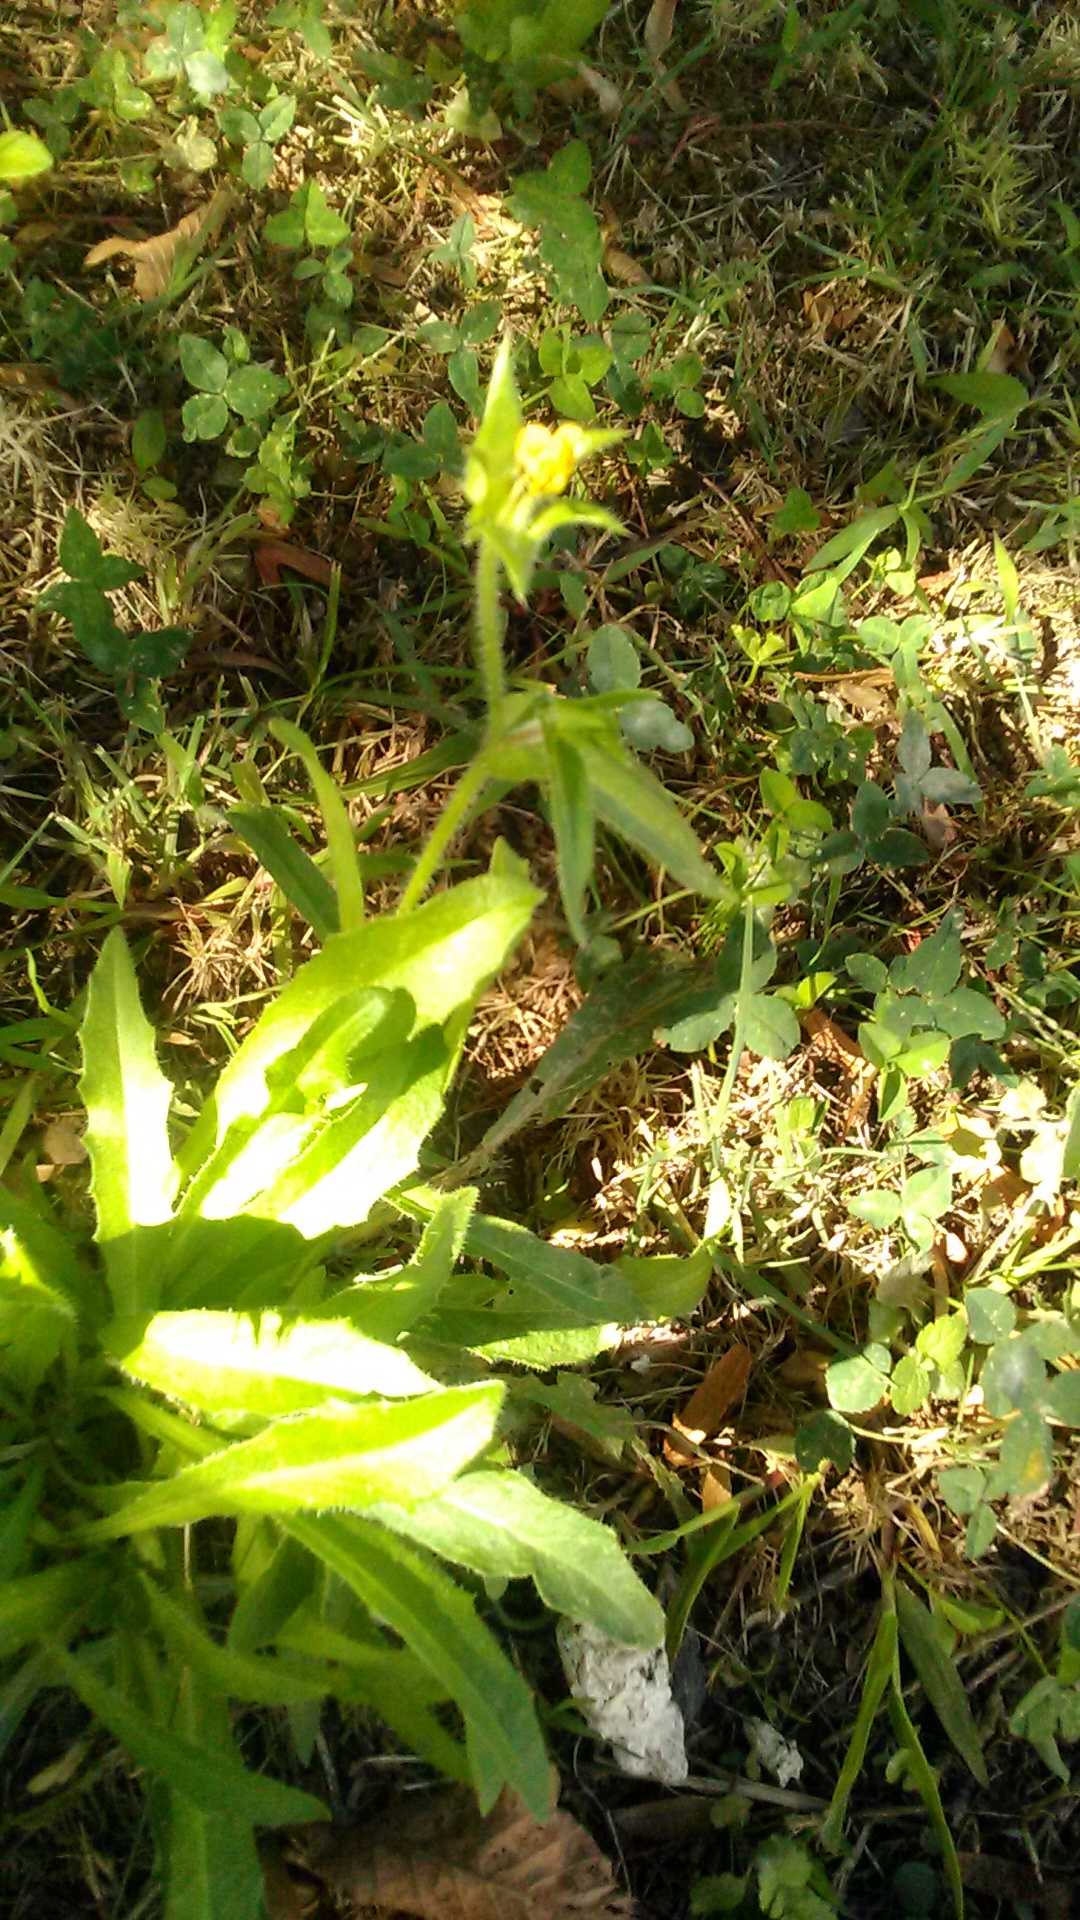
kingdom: Plantae
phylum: Tracheophyta
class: Magnoliopsida
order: Asterales
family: Asteraceae
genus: Helminthotheca
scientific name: Helminthotheca echioides
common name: Ox-tongue
